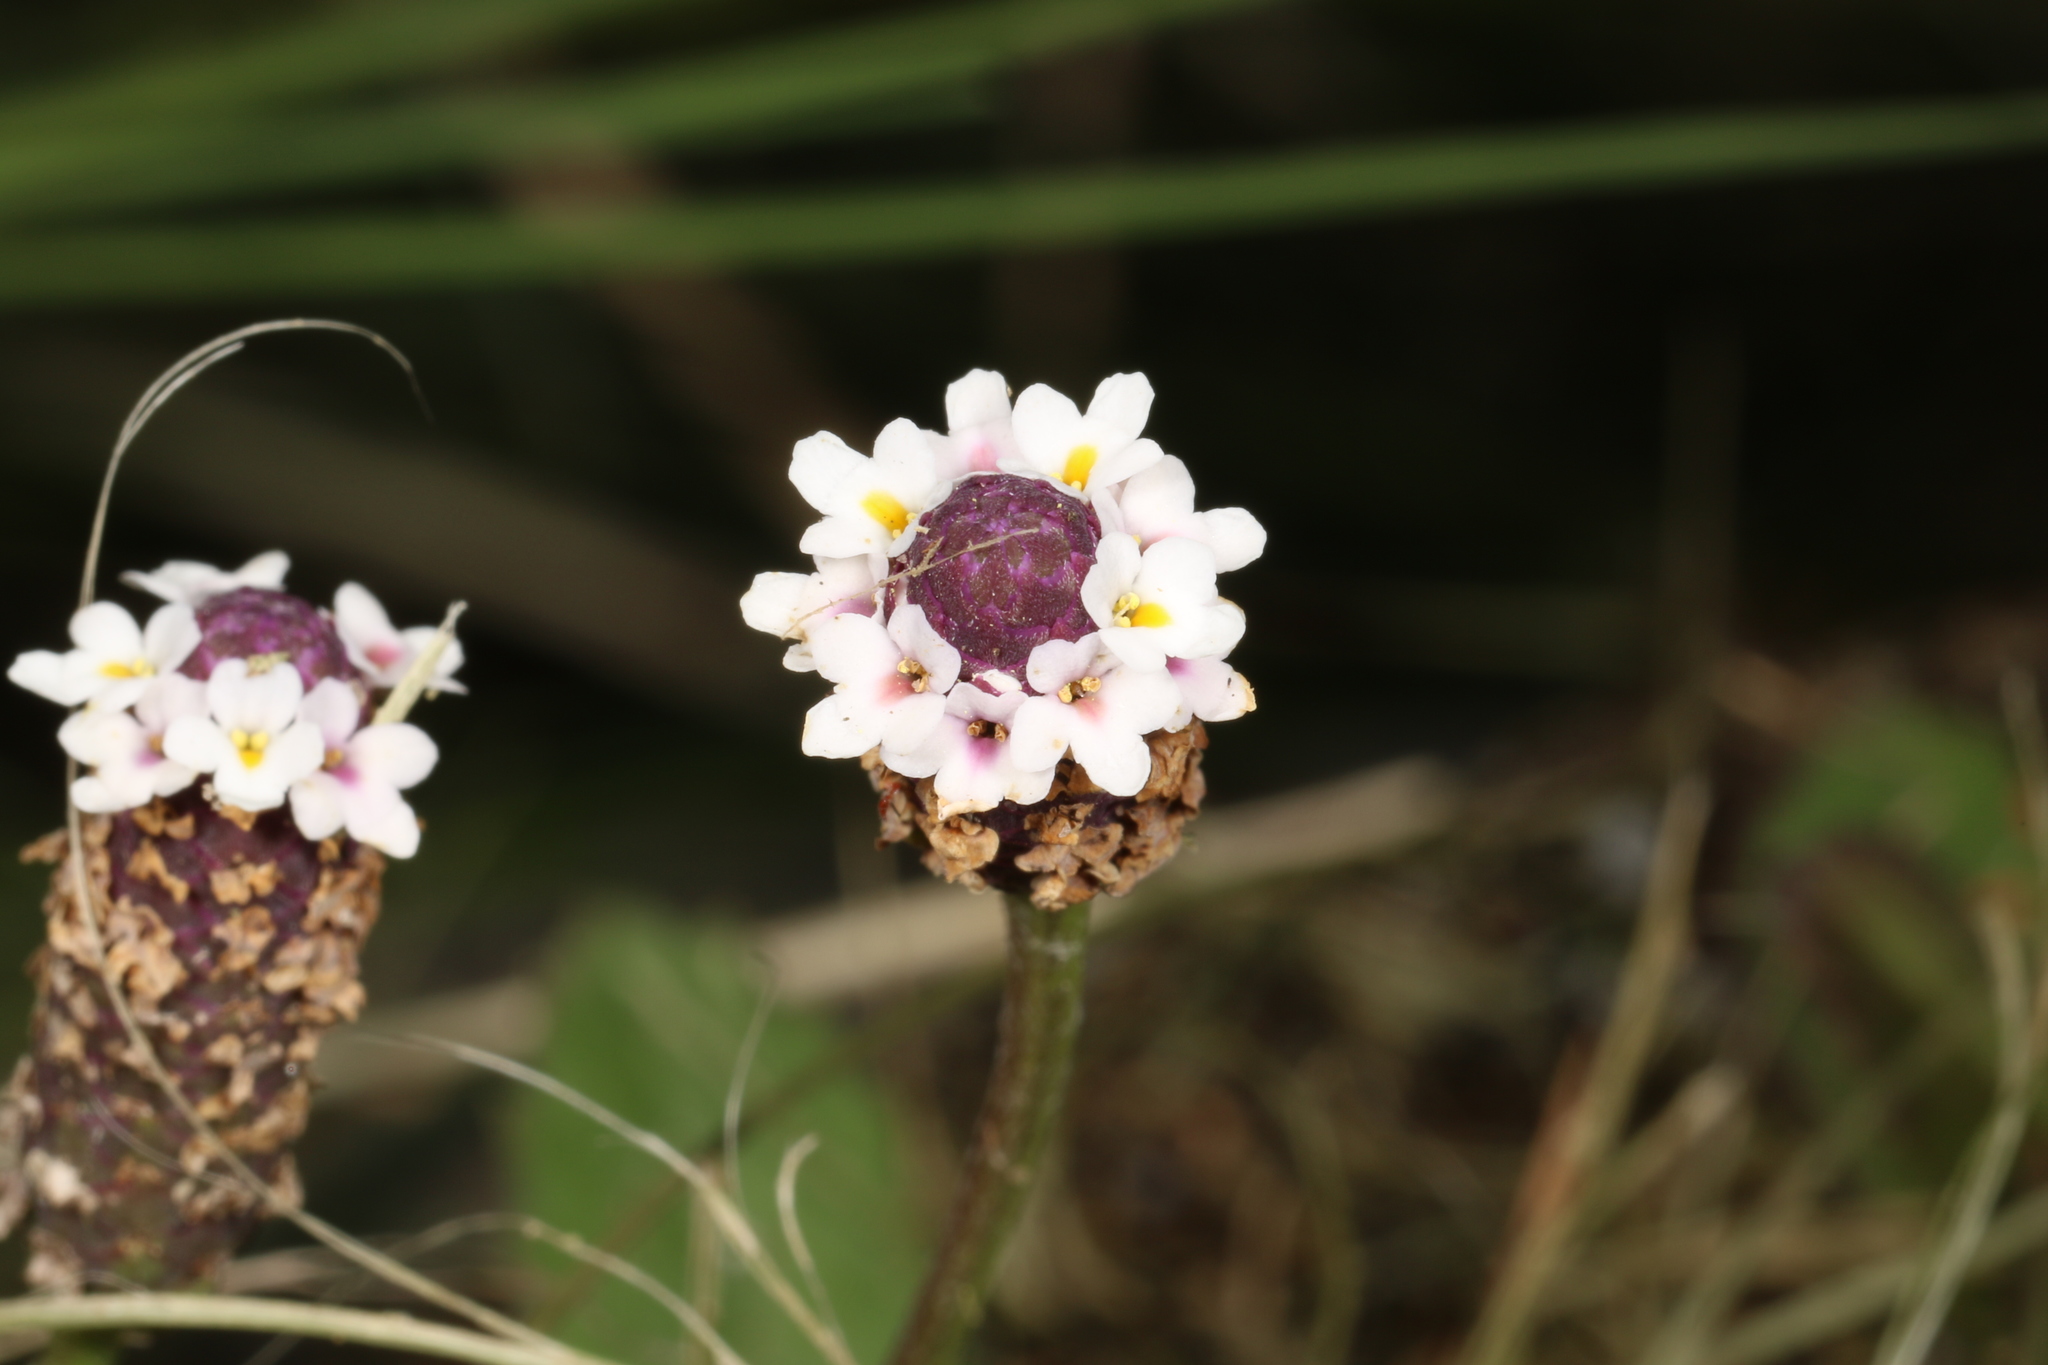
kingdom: Plantae
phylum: Tracheophyta
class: Magnoliopsida
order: Lamiales
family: Verbenaceae
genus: Phyla
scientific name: Phyla nodiflora
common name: Frogfruit
